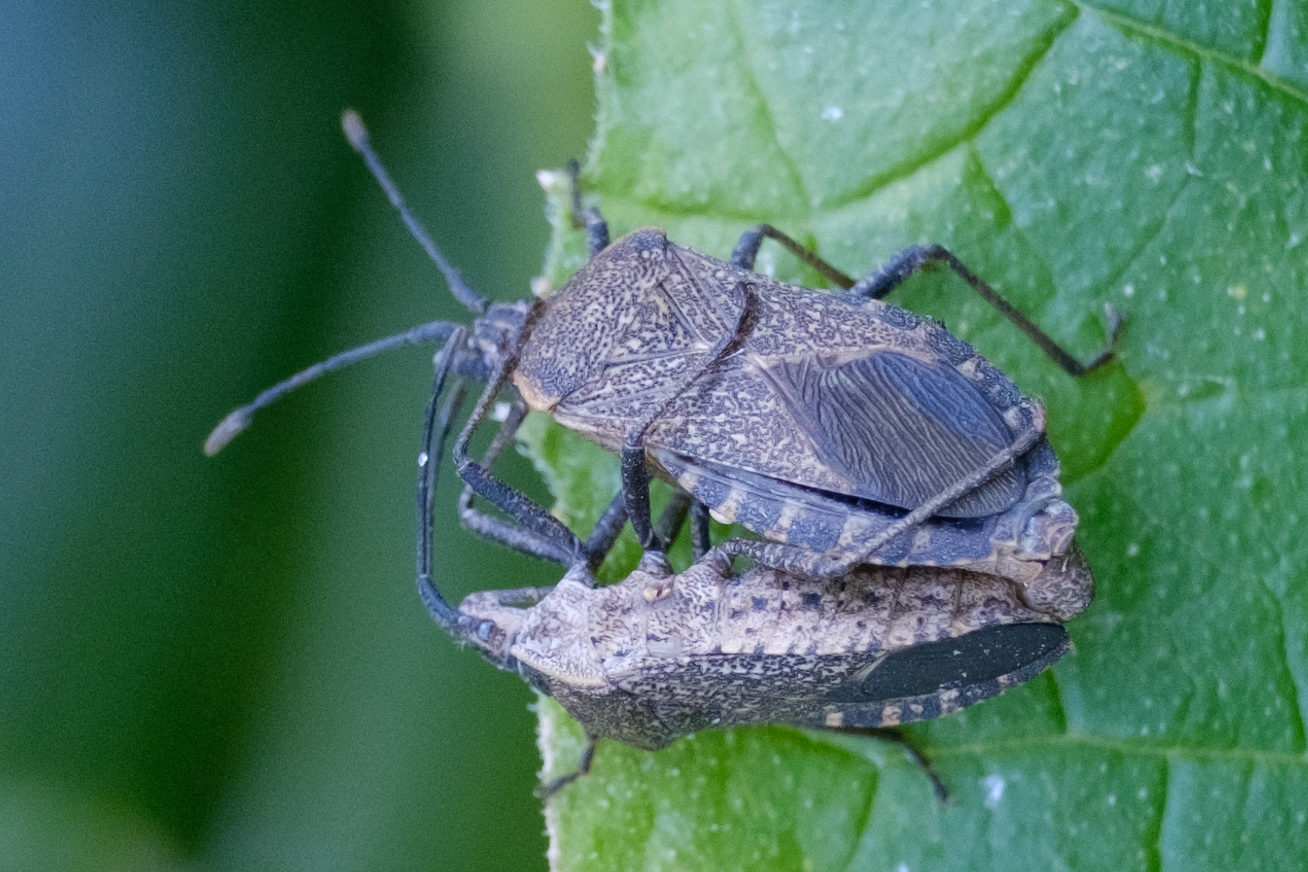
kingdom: Animalia
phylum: Arthropoda
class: Insecta
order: Hemiptera
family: Coreidae
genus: Anasa
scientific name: Anasa tristis
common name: Squash bug
